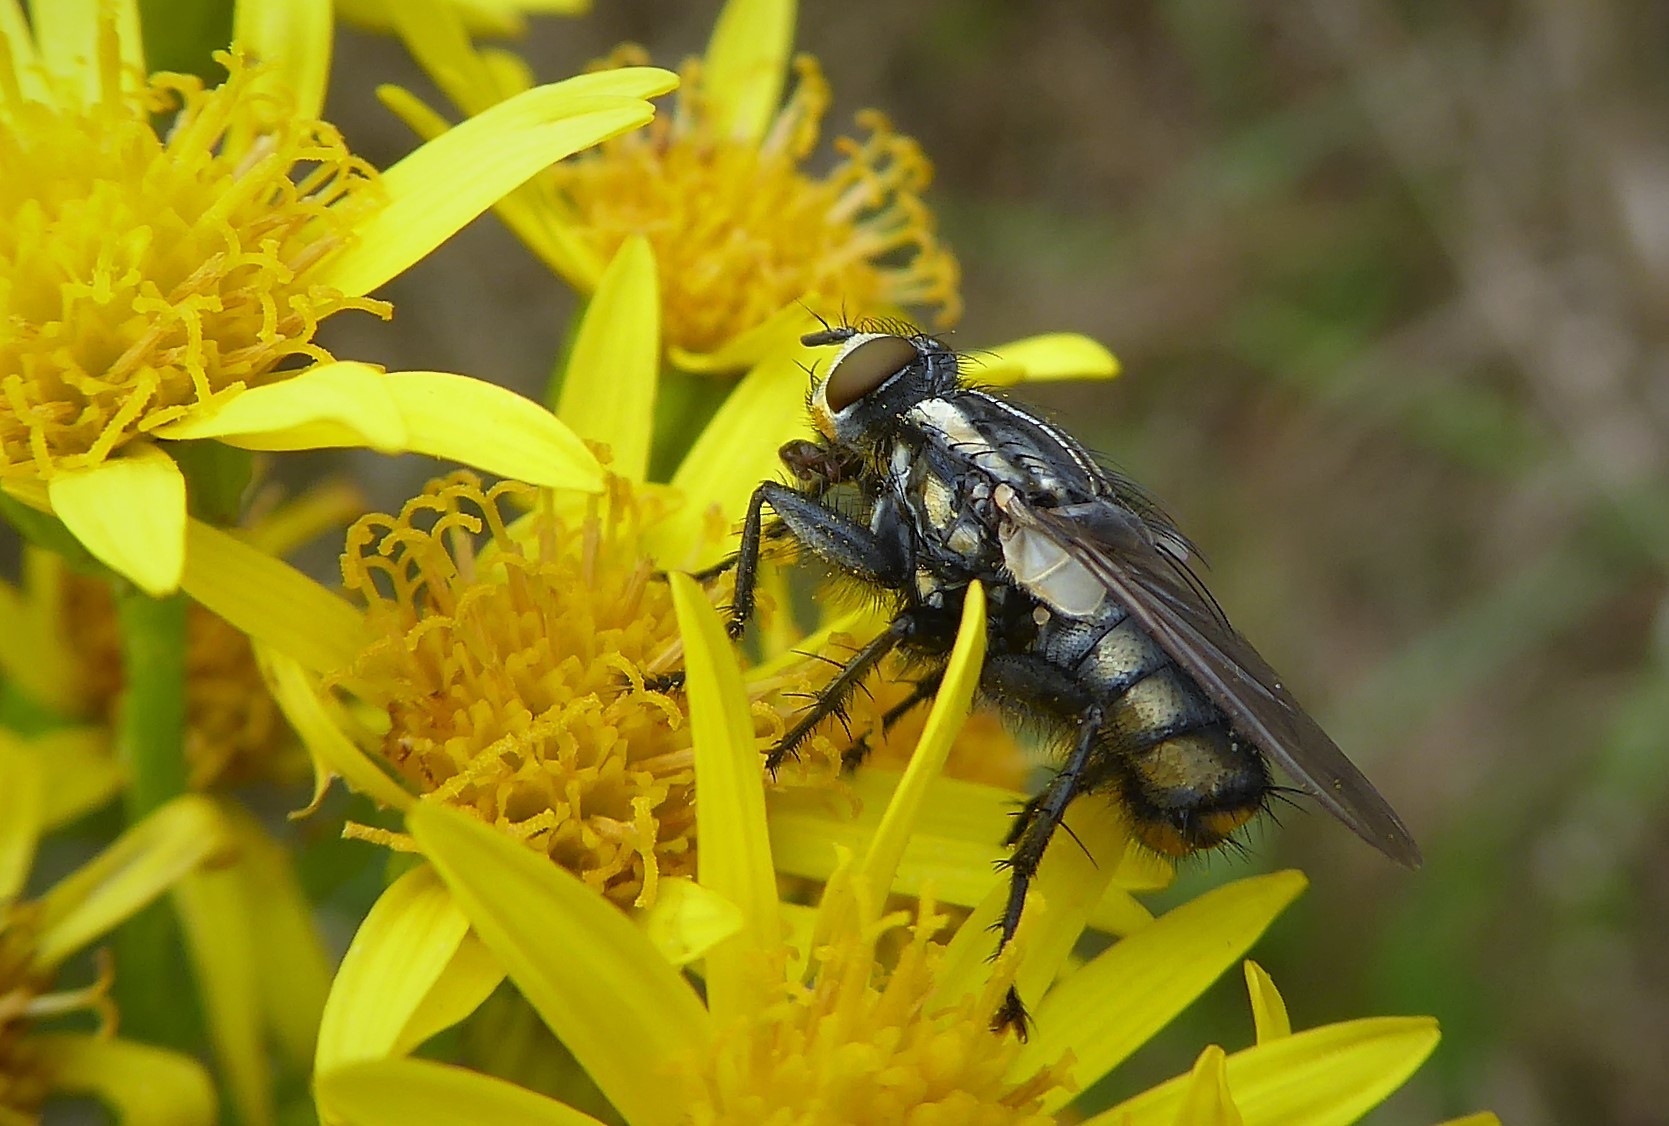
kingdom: Animalia
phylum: Arthropoda
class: Insecta
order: Diptera
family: Sarcophagidae
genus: Oxysarcodexia
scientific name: Oxysarcodexia varia
